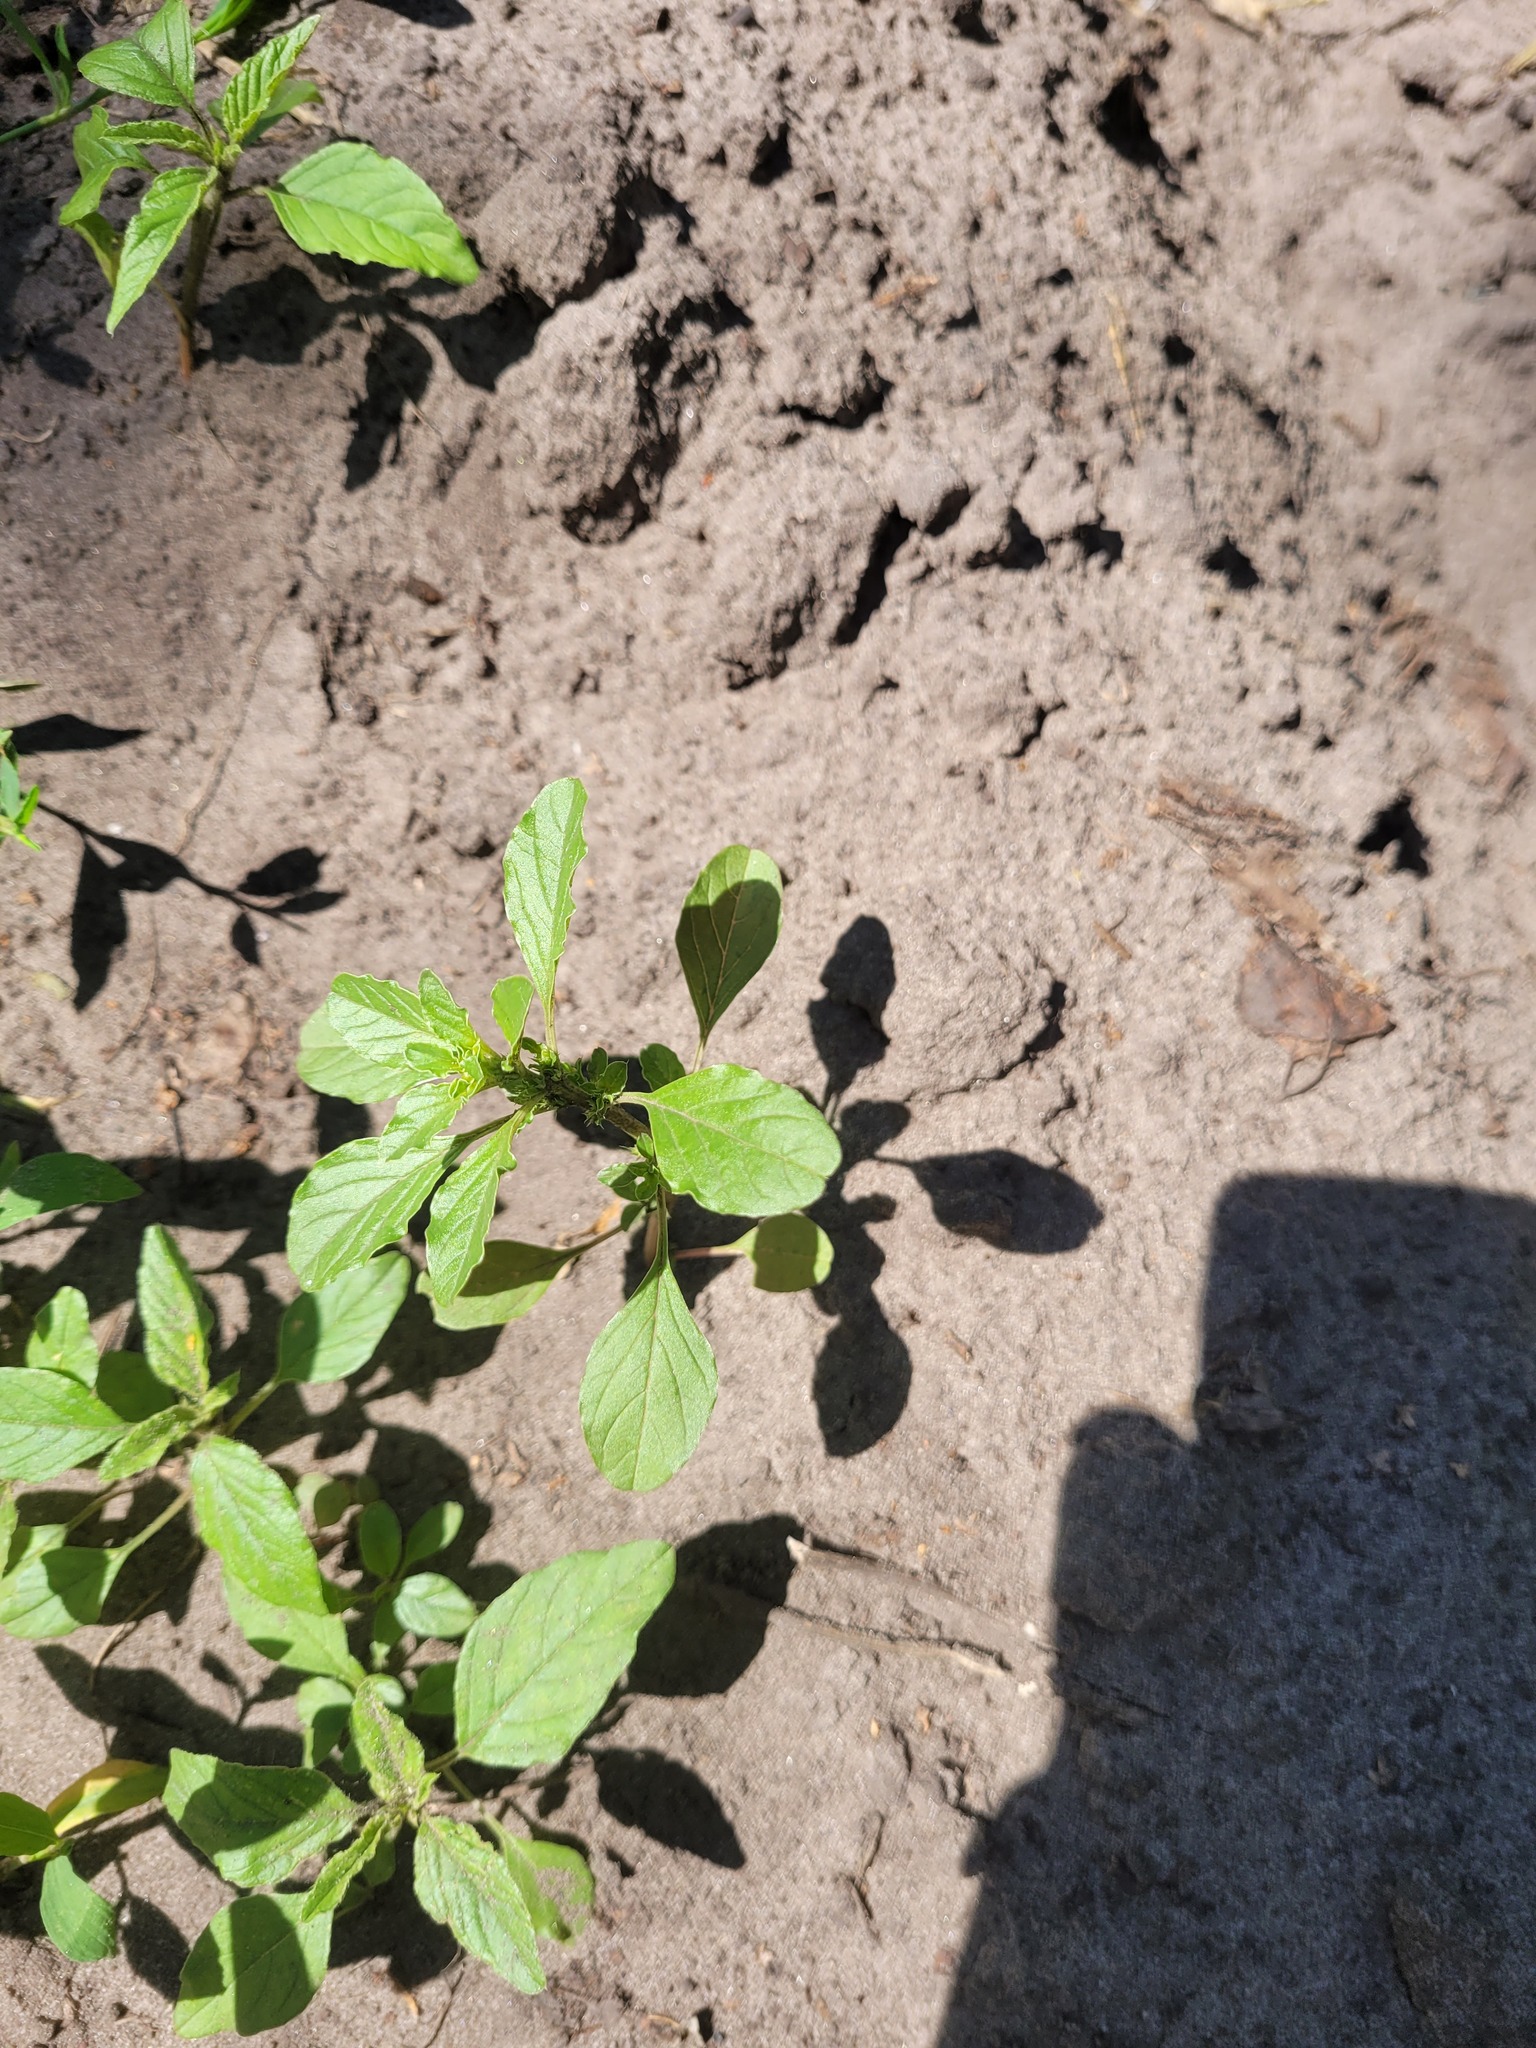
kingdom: Plantae
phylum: Tracheophyta
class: Magnoliopsida
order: Caryophyllales
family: Amaranthaceae
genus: Amaranthus
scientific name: Amaranthus albus
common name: White pigweed
